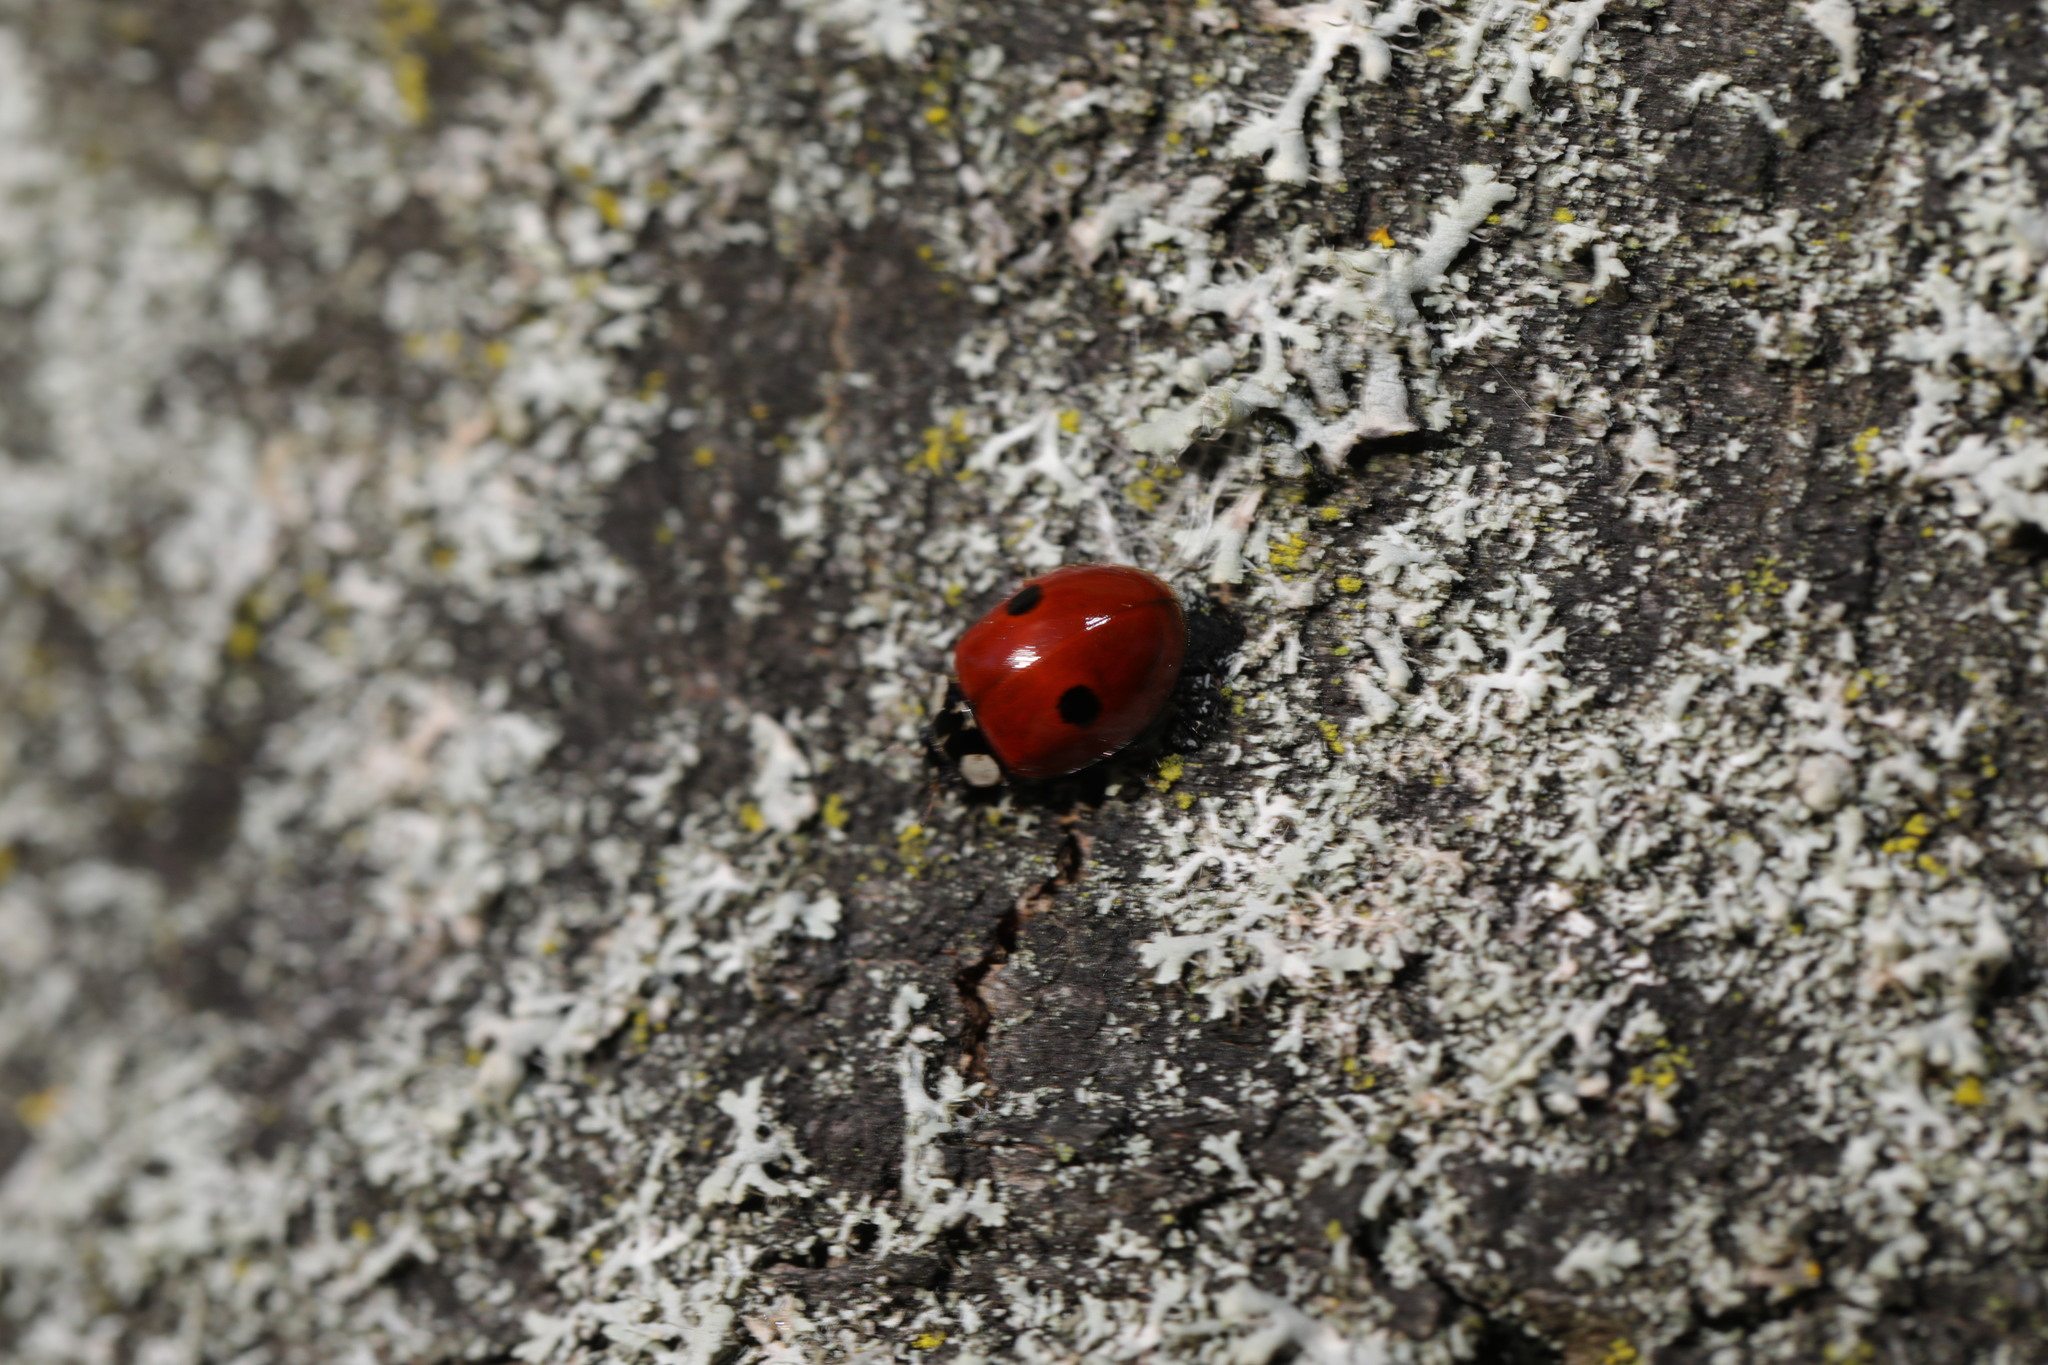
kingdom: Animalia
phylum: Arthropoda
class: Insecta
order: Coleoptera
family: Coccinellidae
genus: Adalia
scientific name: Adalia bipunctata
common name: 2-spot ladybird
